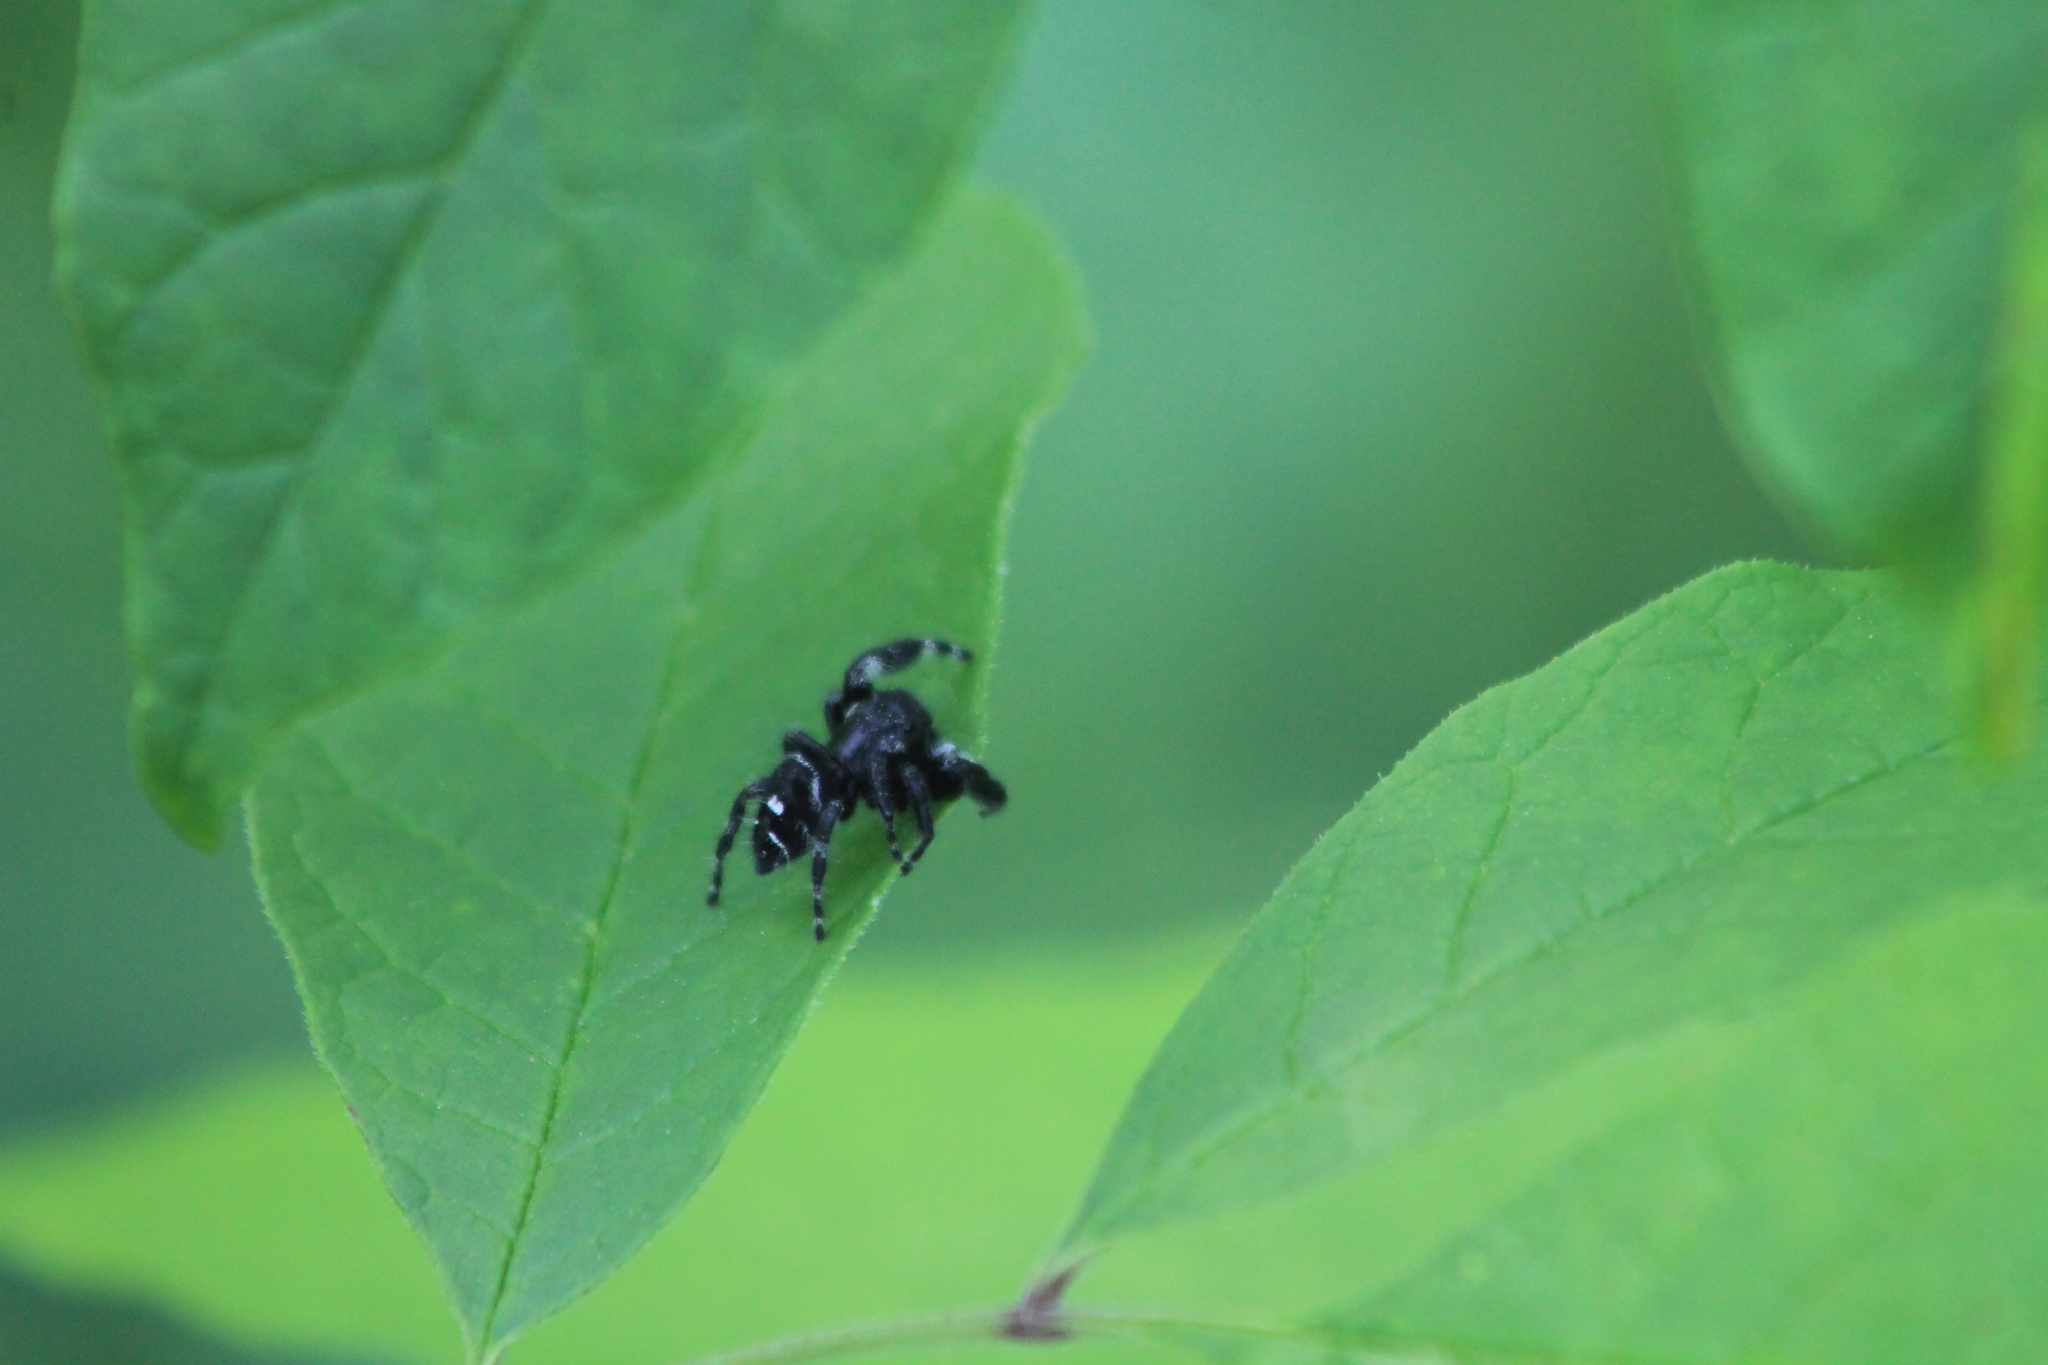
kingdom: Animalia
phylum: Arthropoda
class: Arachnida
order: Araneae
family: Salticidae
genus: Phidippus
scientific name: Phidippus audax
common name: Bold jumper
